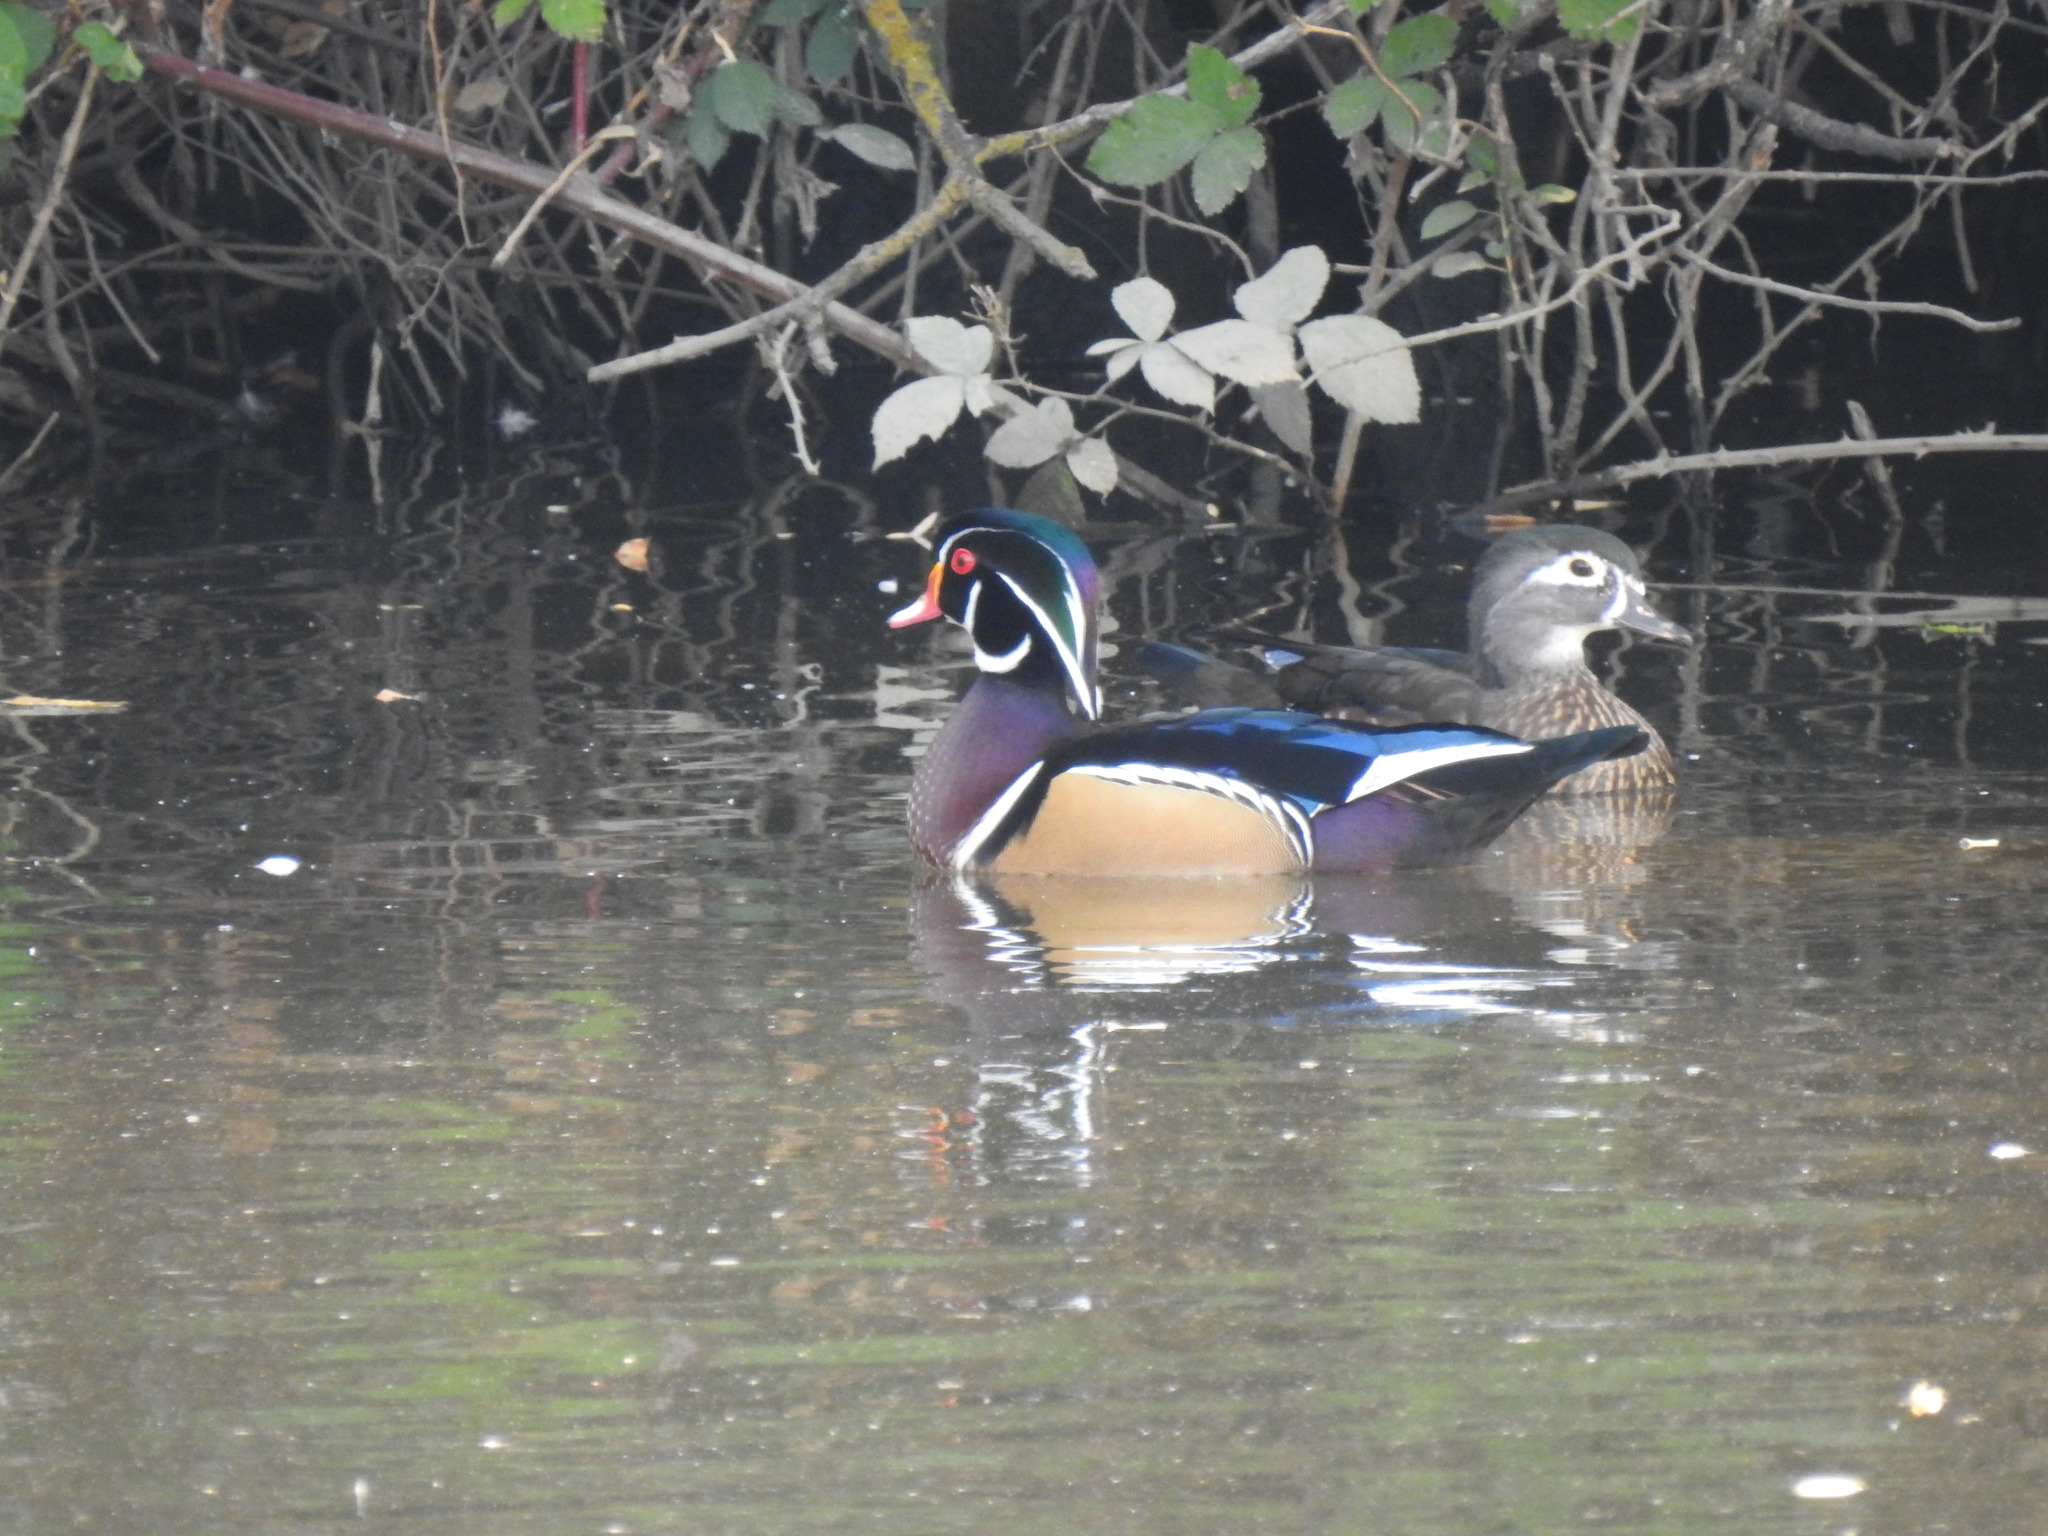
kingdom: Animalia
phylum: Chordata
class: Aves
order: Anseriformes
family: Anatidae
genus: Aix
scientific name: Aix sponsa
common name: Wood duck
